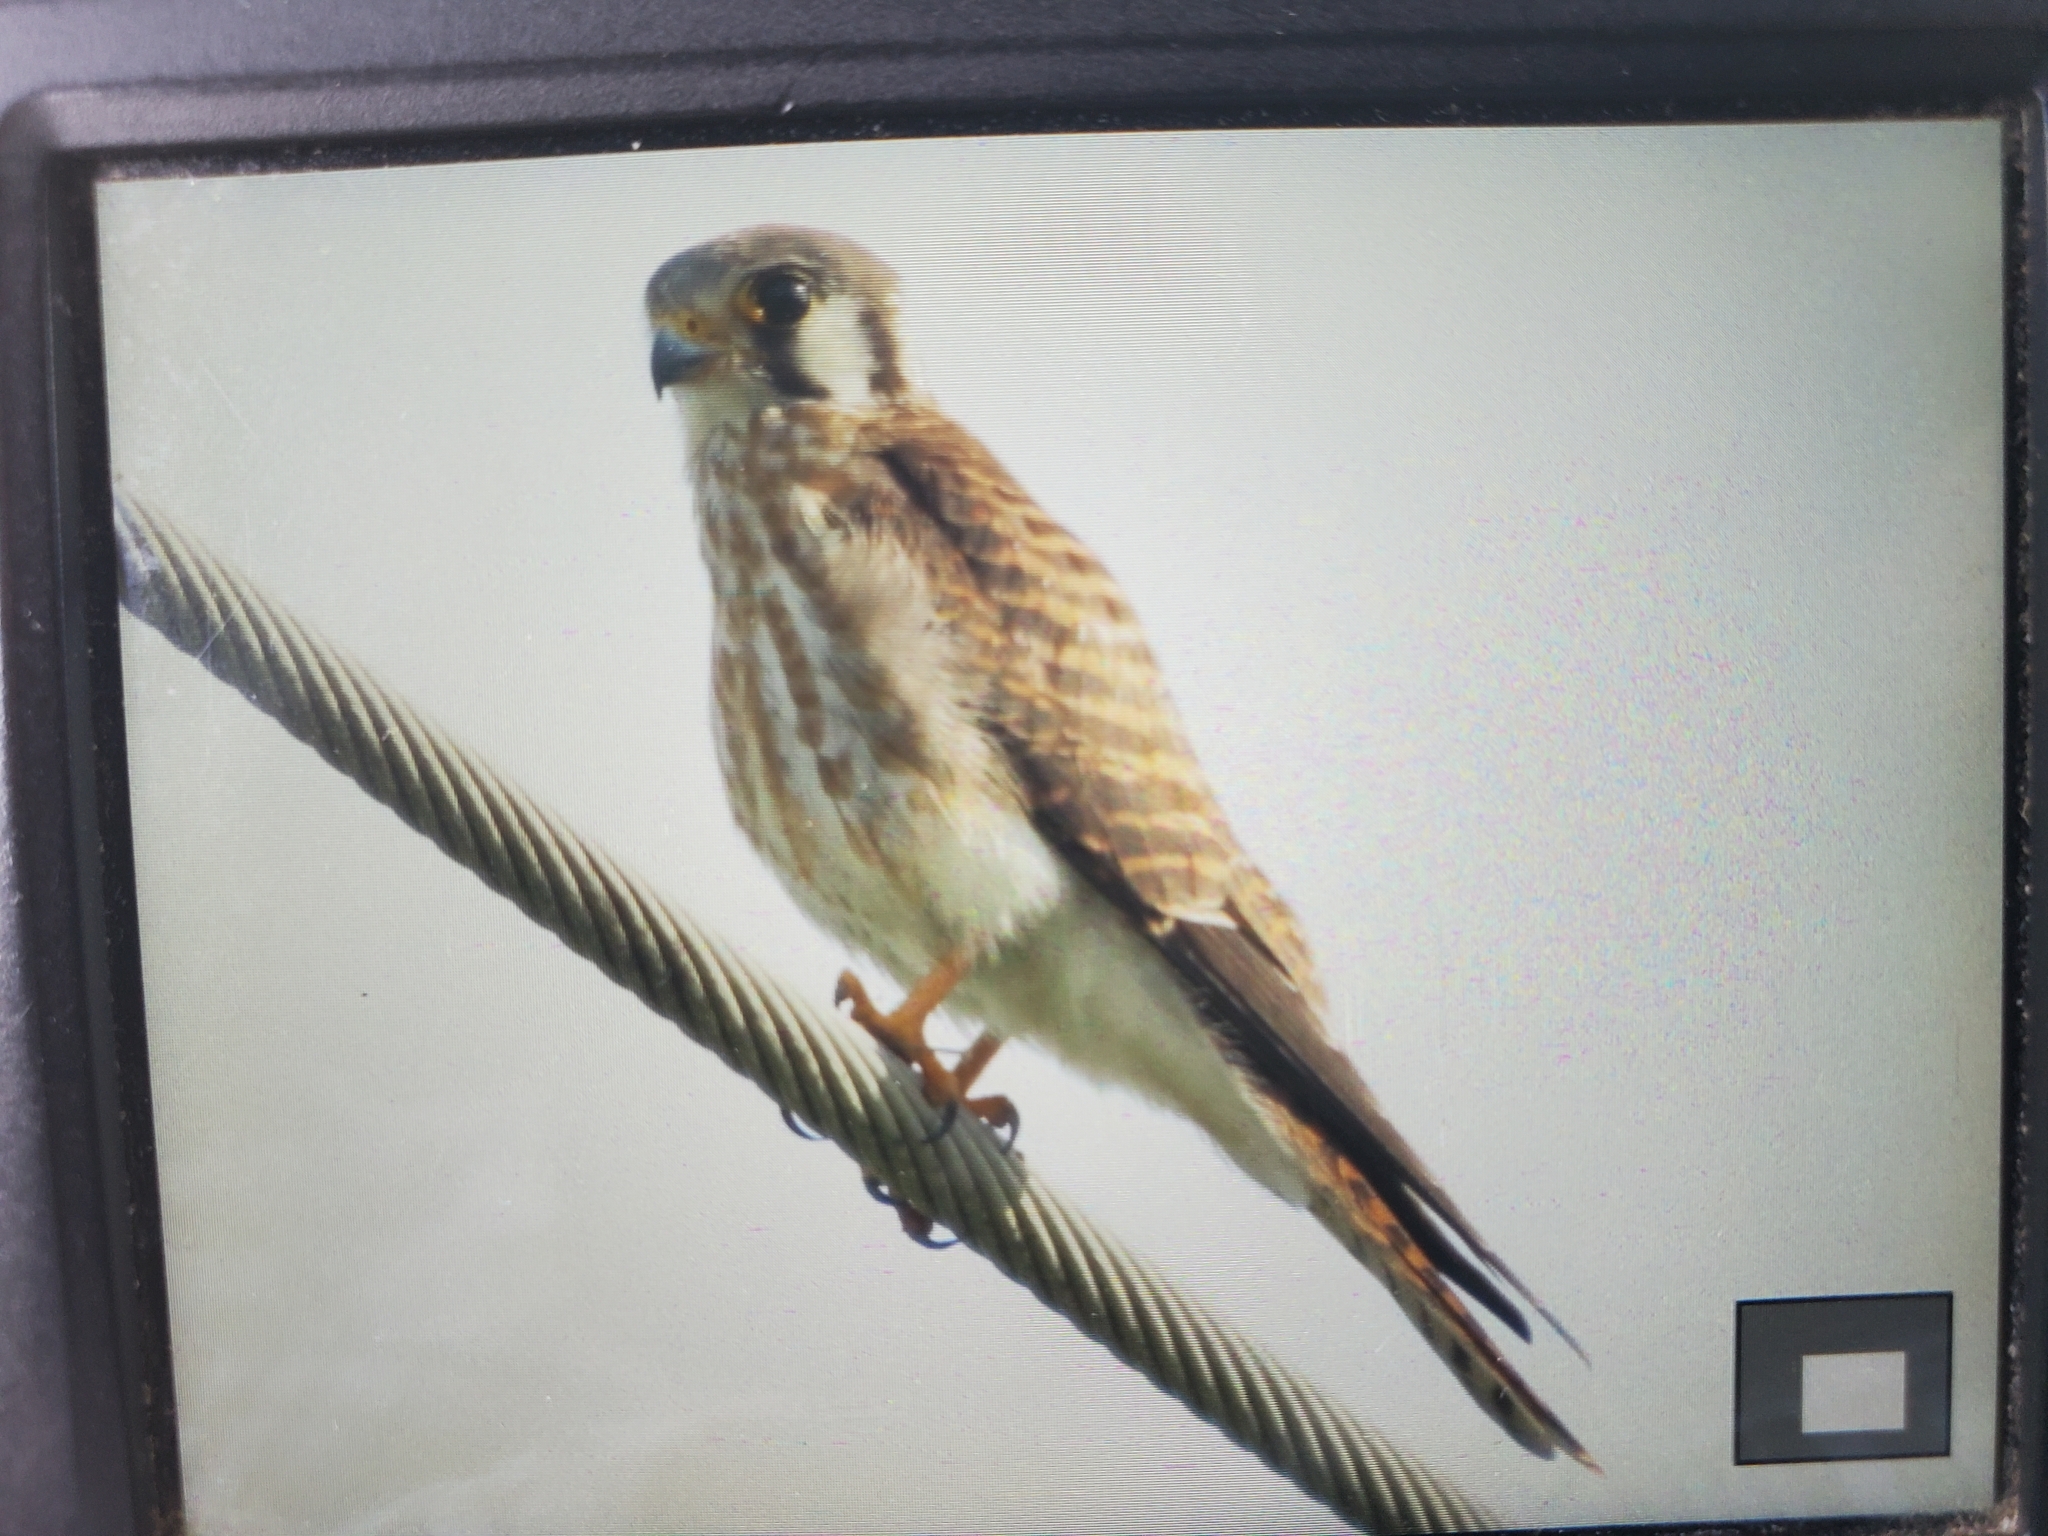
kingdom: Animalia
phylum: Chordata
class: Aves
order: Falconiformes
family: Falconidae
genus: Falco
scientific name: Falco sparverius
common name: American kestrel
